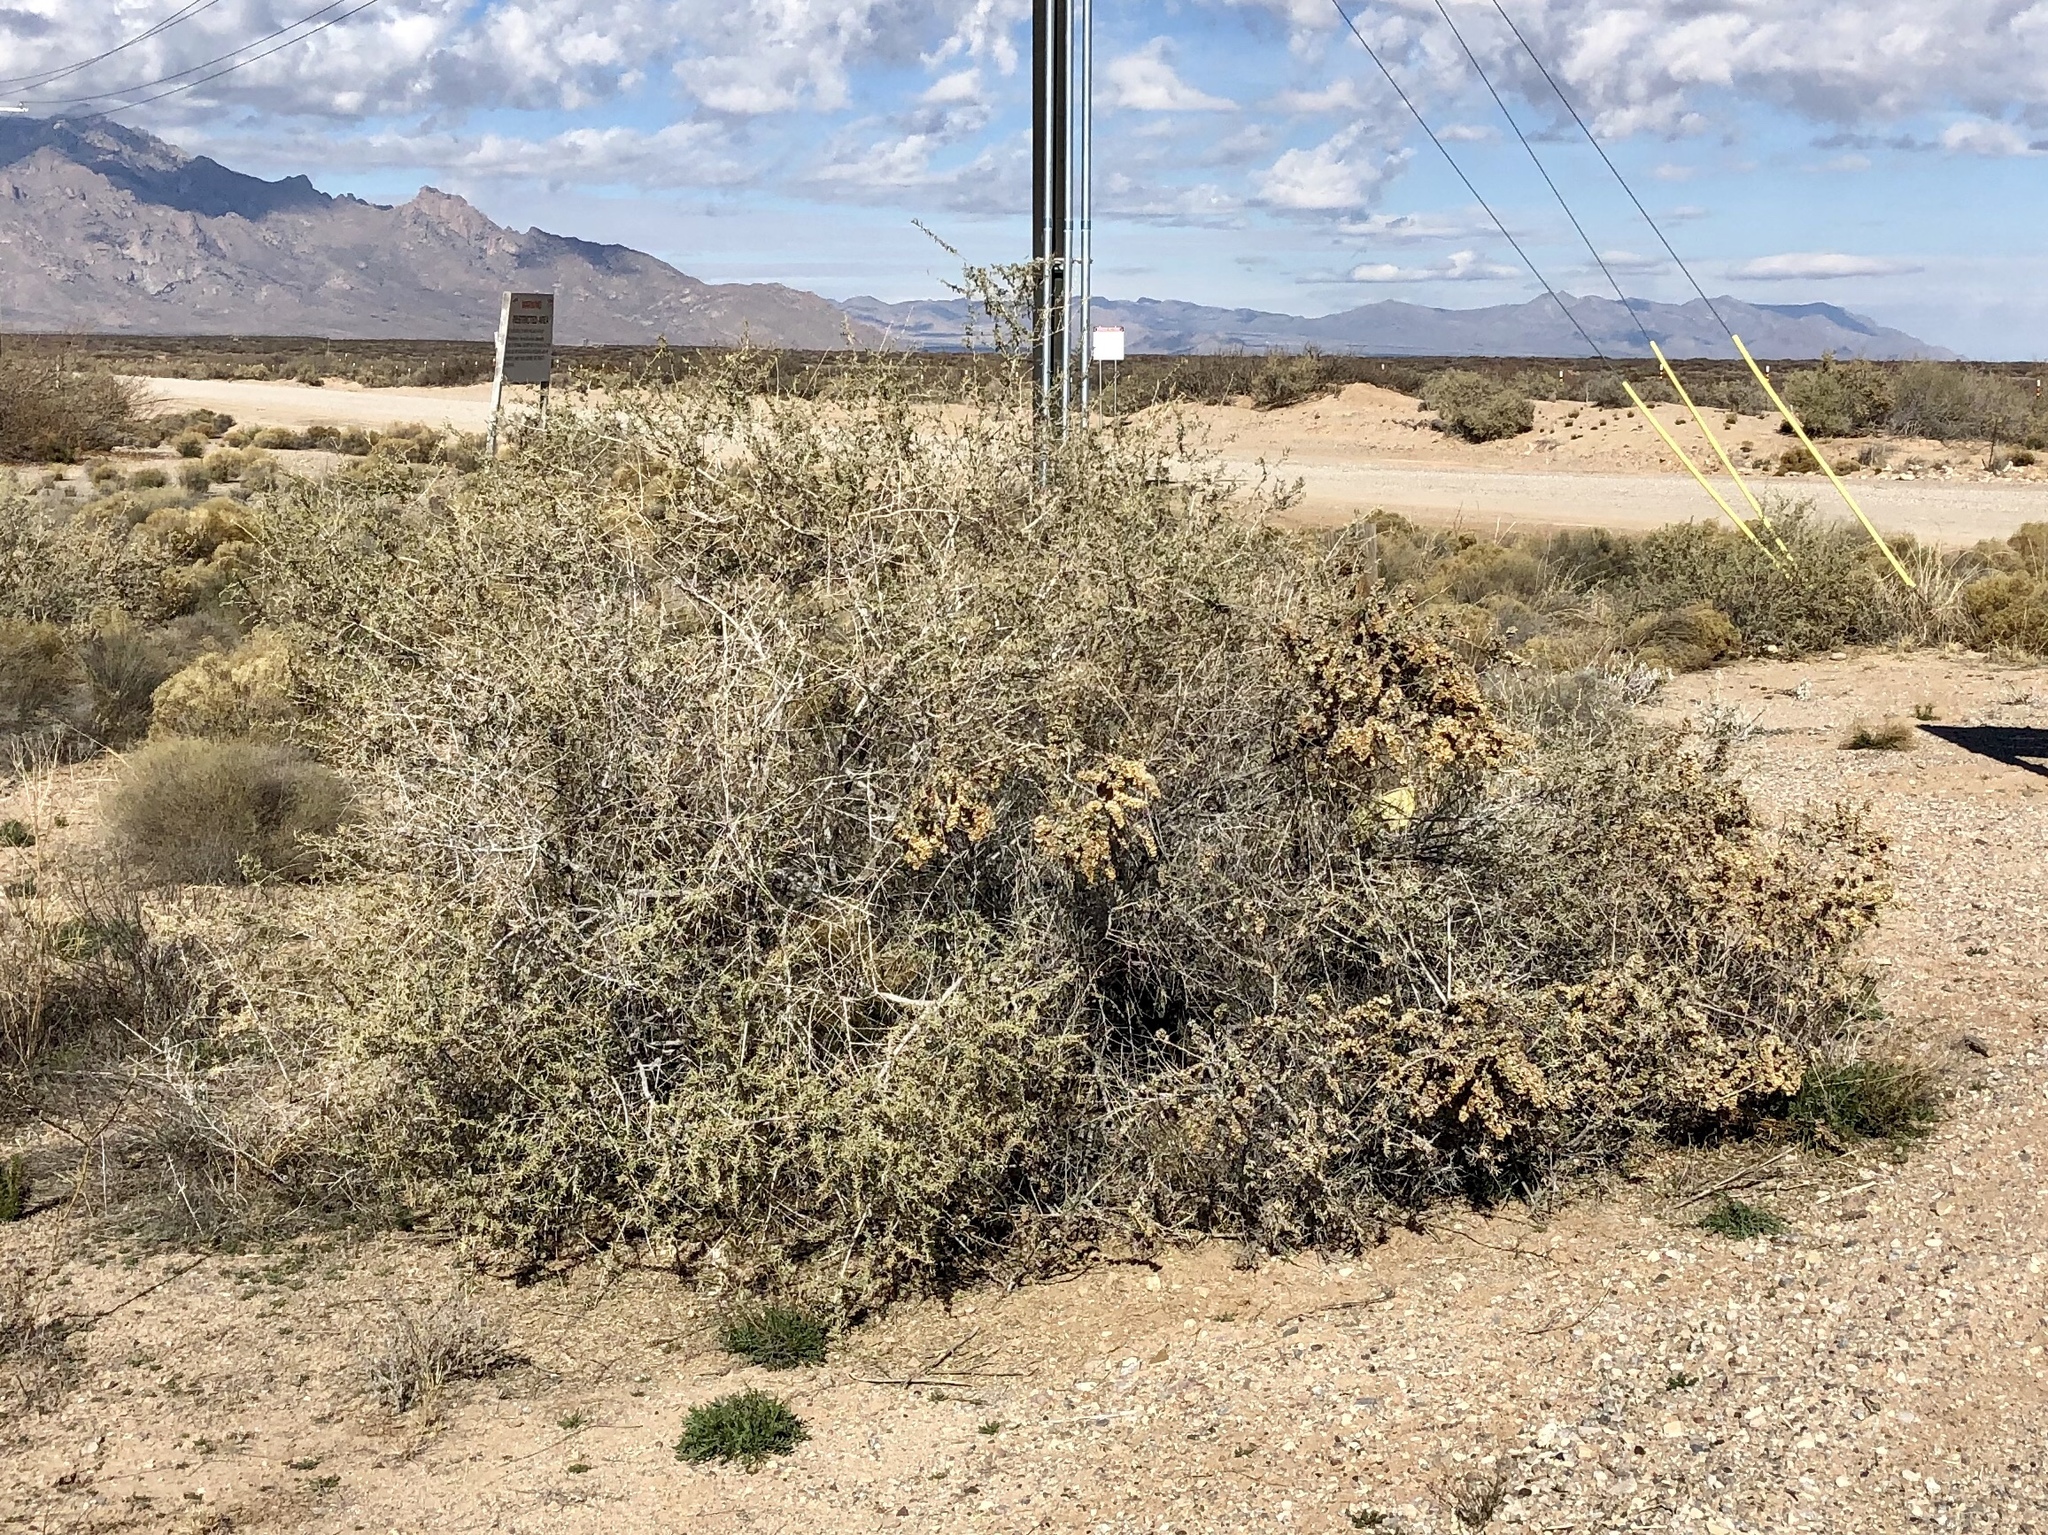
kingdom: Plantae
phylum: Tracheophyta
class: Magnoliopsida
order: Caryophyllales
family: Amaranthaceae
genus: Atriplex
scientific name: Atriplex canescens
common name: Four-wing saltbush
